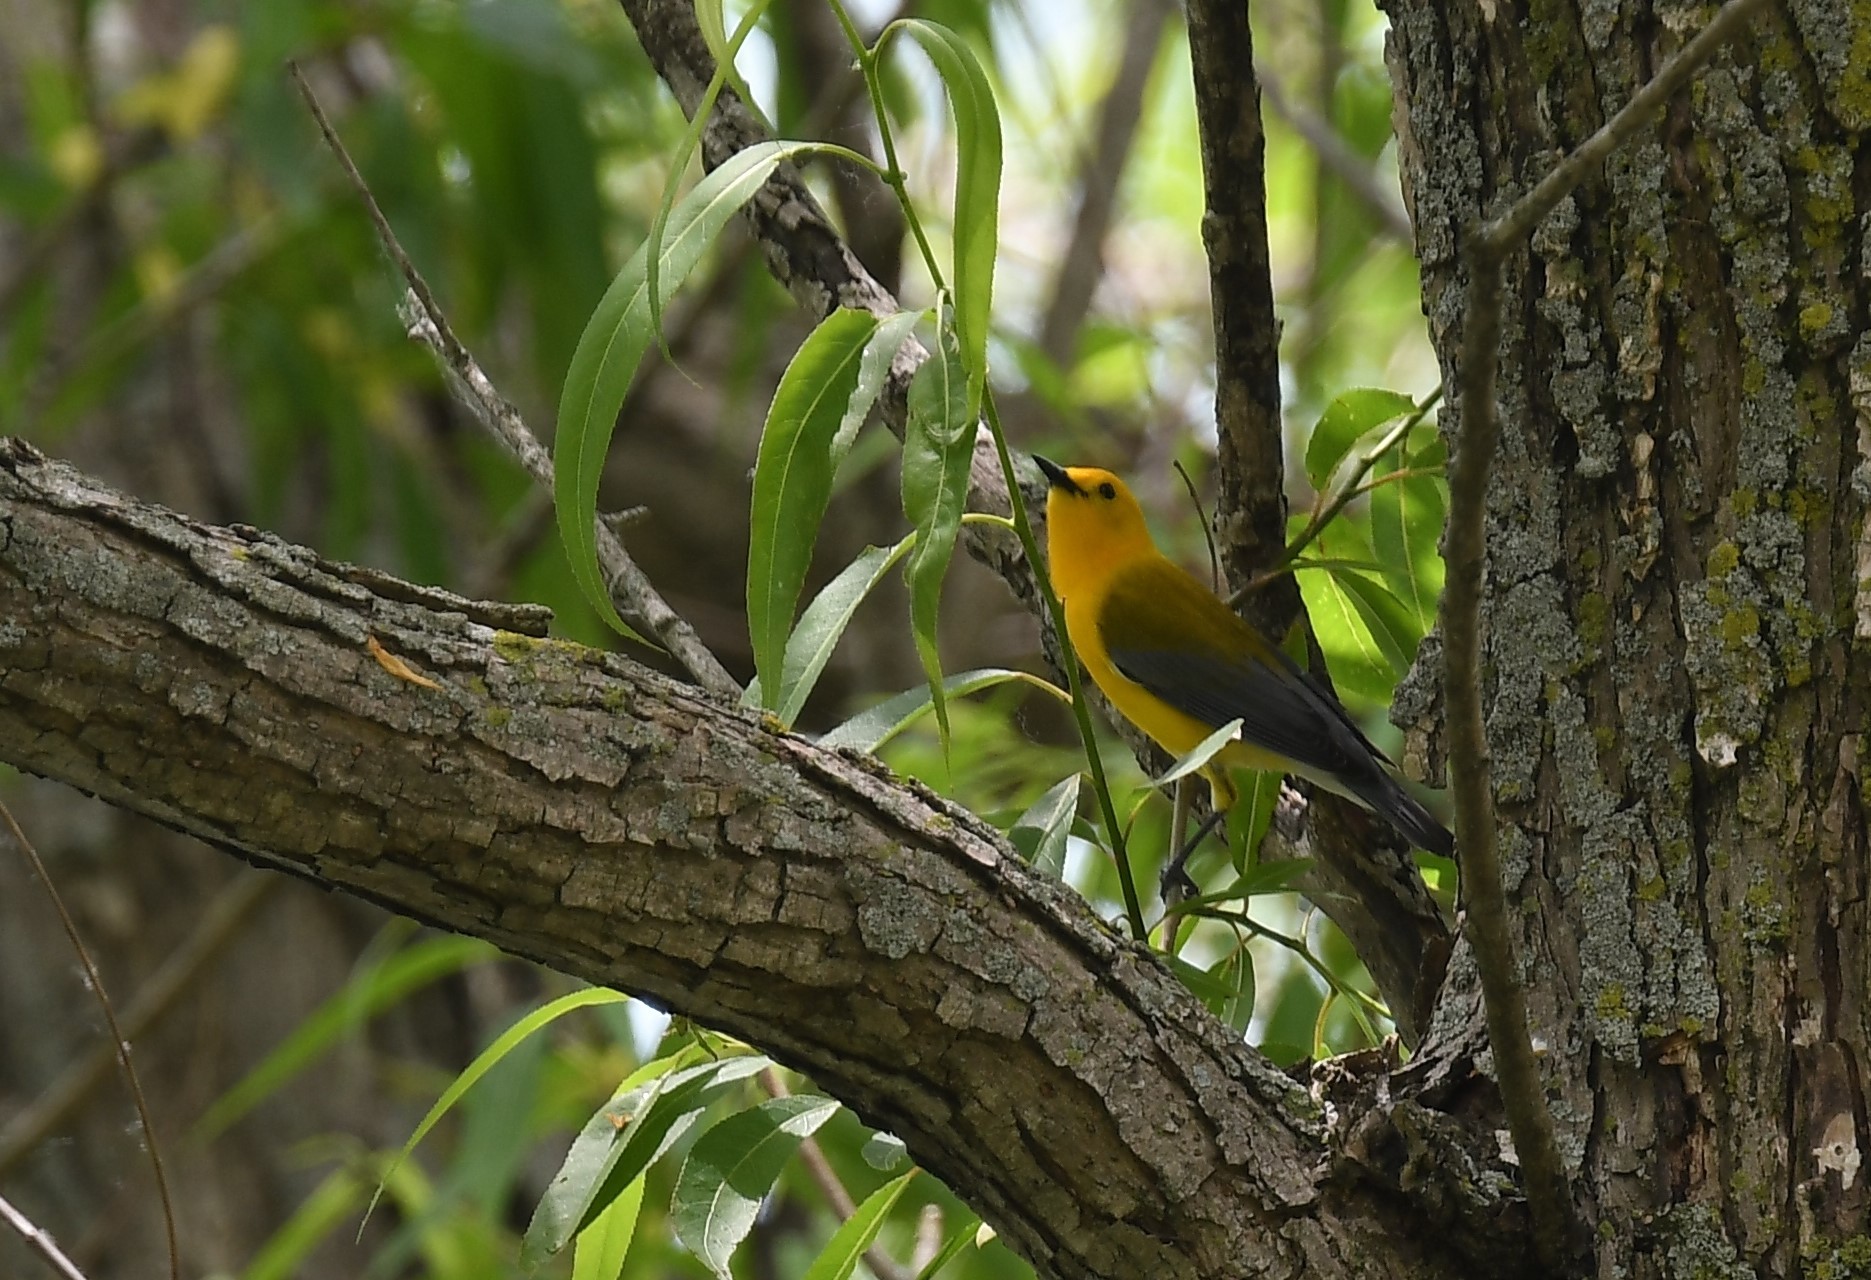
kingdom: Animalia
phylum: Chordata
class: Aves
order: Passeriformes
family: Parulidae
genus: Protonotaria
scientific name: Protonotaria citrea
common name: Prothonotary warbler
